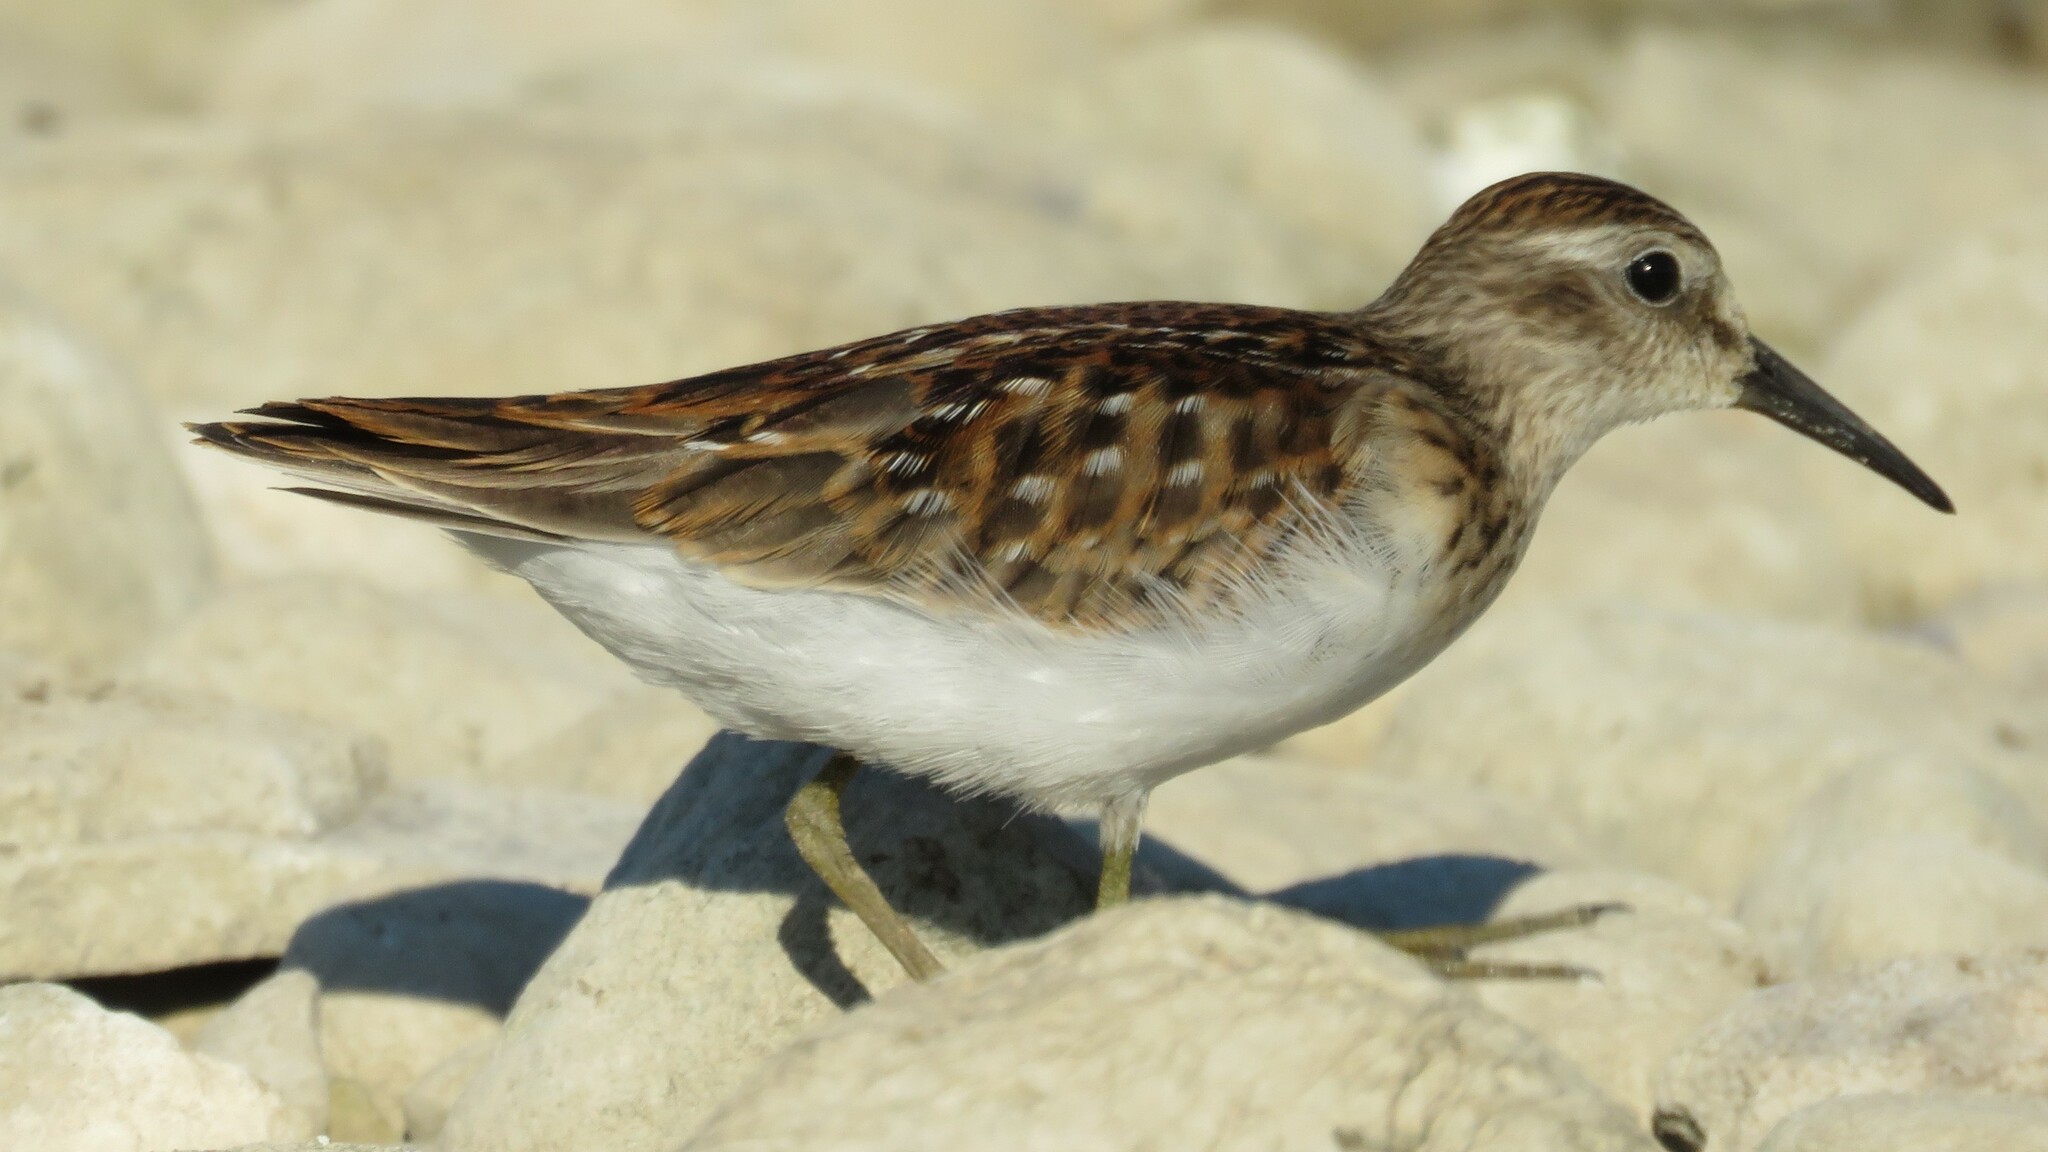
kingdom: Animalia
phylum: Chordata
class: Aves
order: Charadriiformes
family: Scolopacidae
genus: Calidris
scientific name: Calidris minutilla
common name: Least sandpiper
